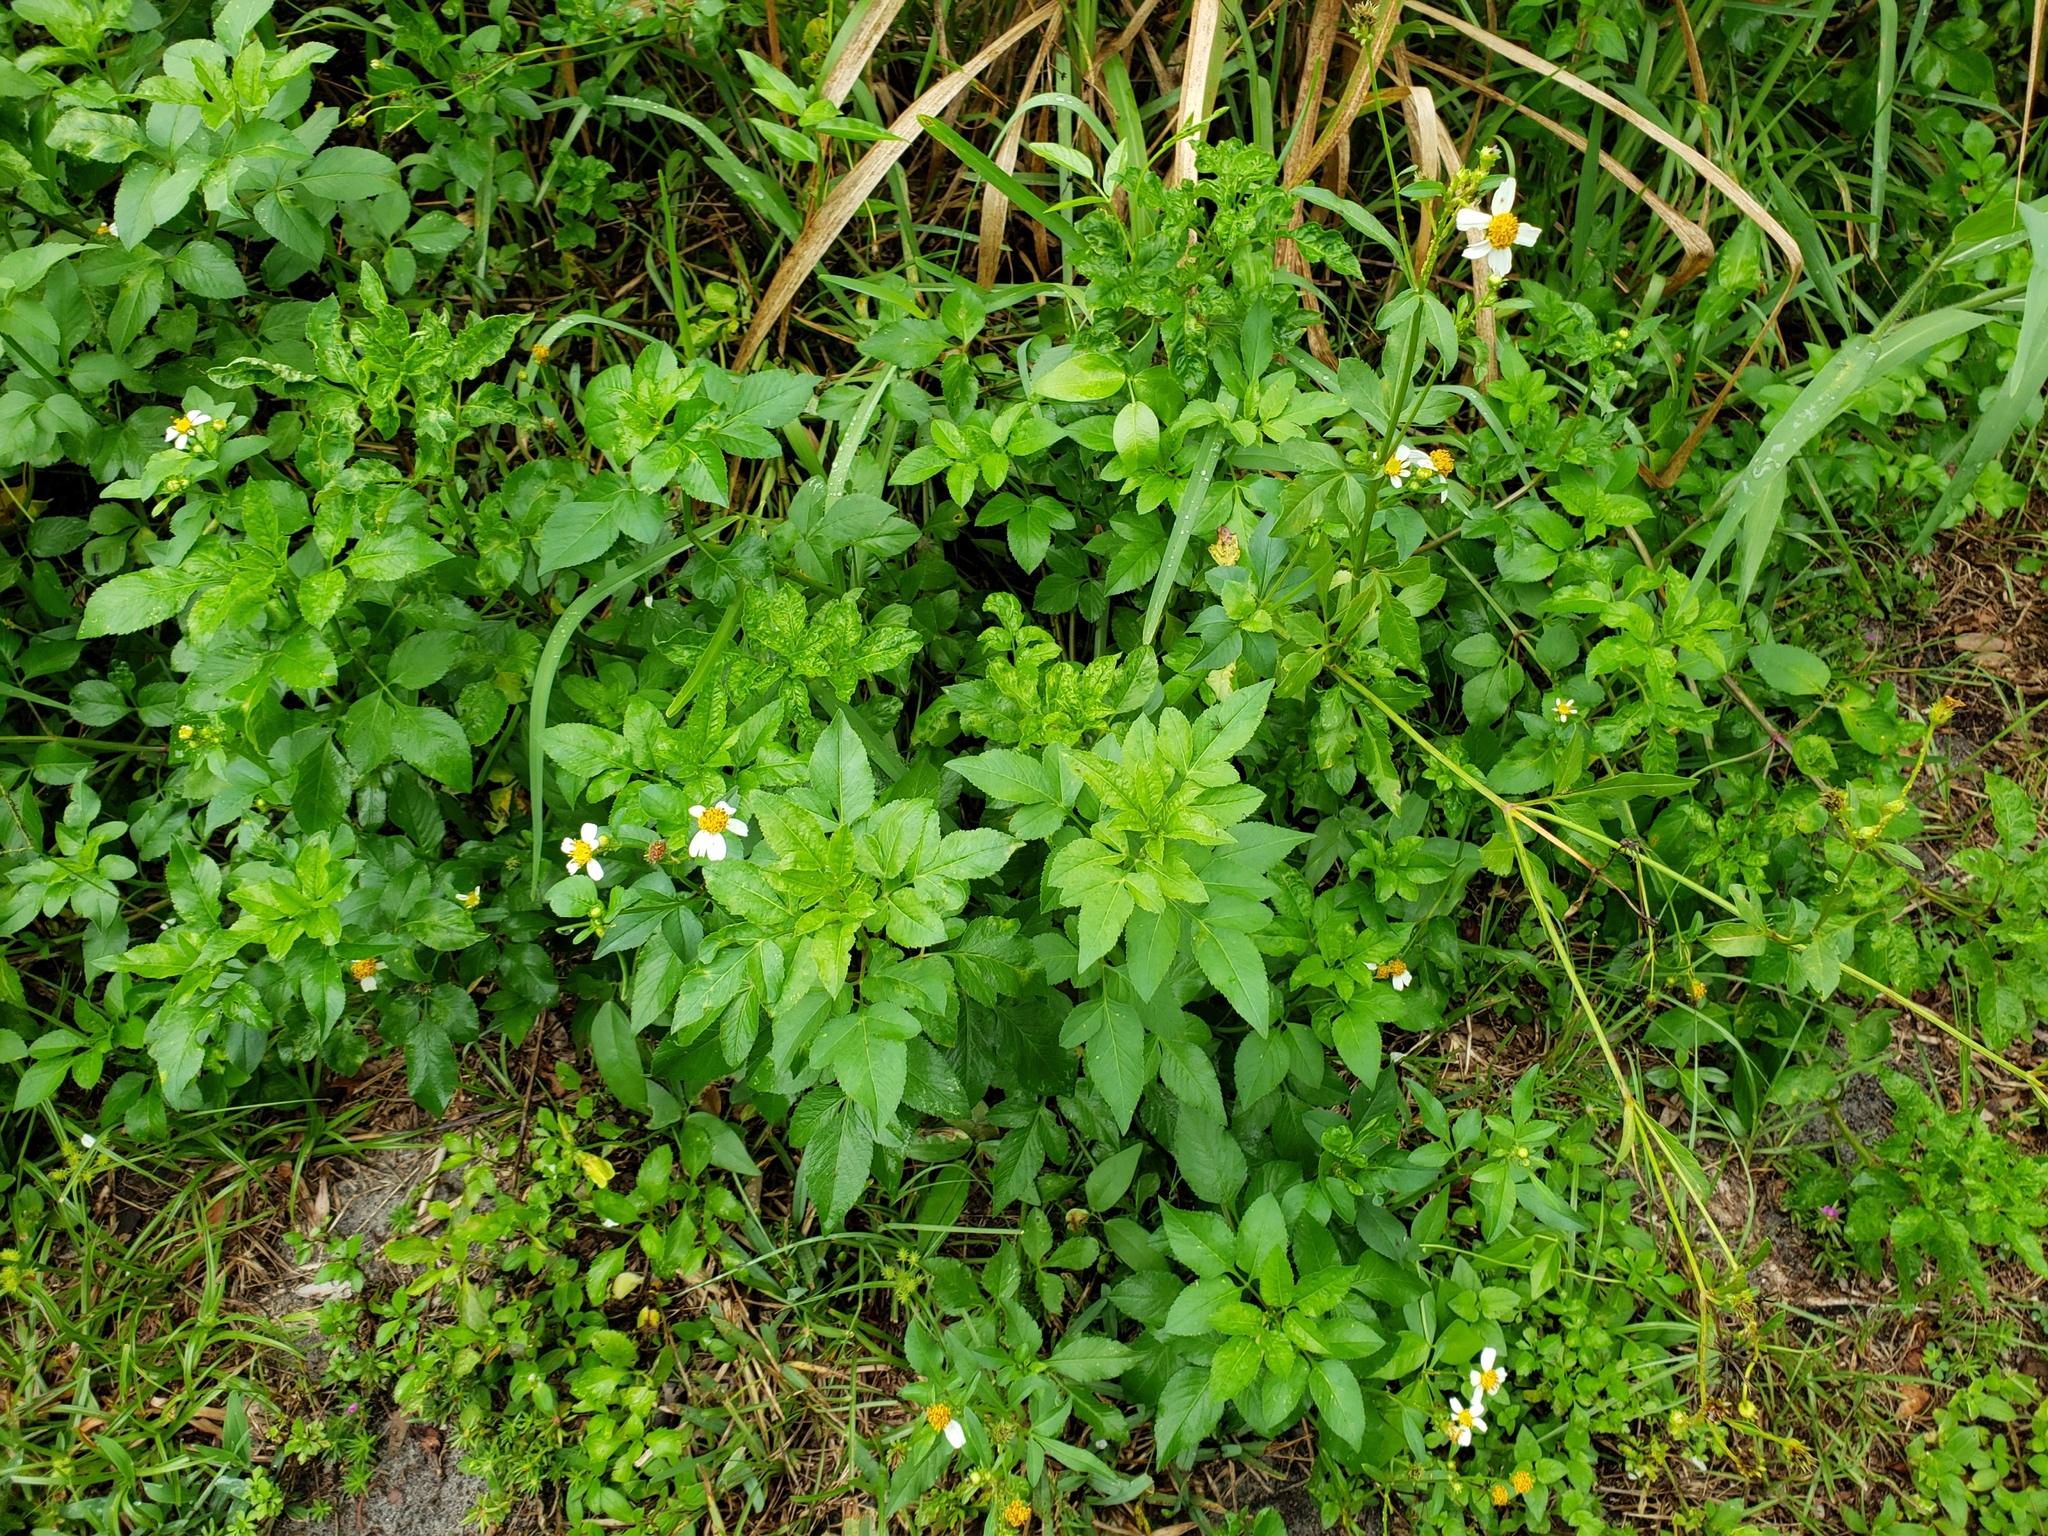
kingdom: Plantae
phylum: Tracheophyta
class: Magnoliopsida
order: Asterales
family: Asteraceae
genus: Bidens
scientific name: Bidens alba
